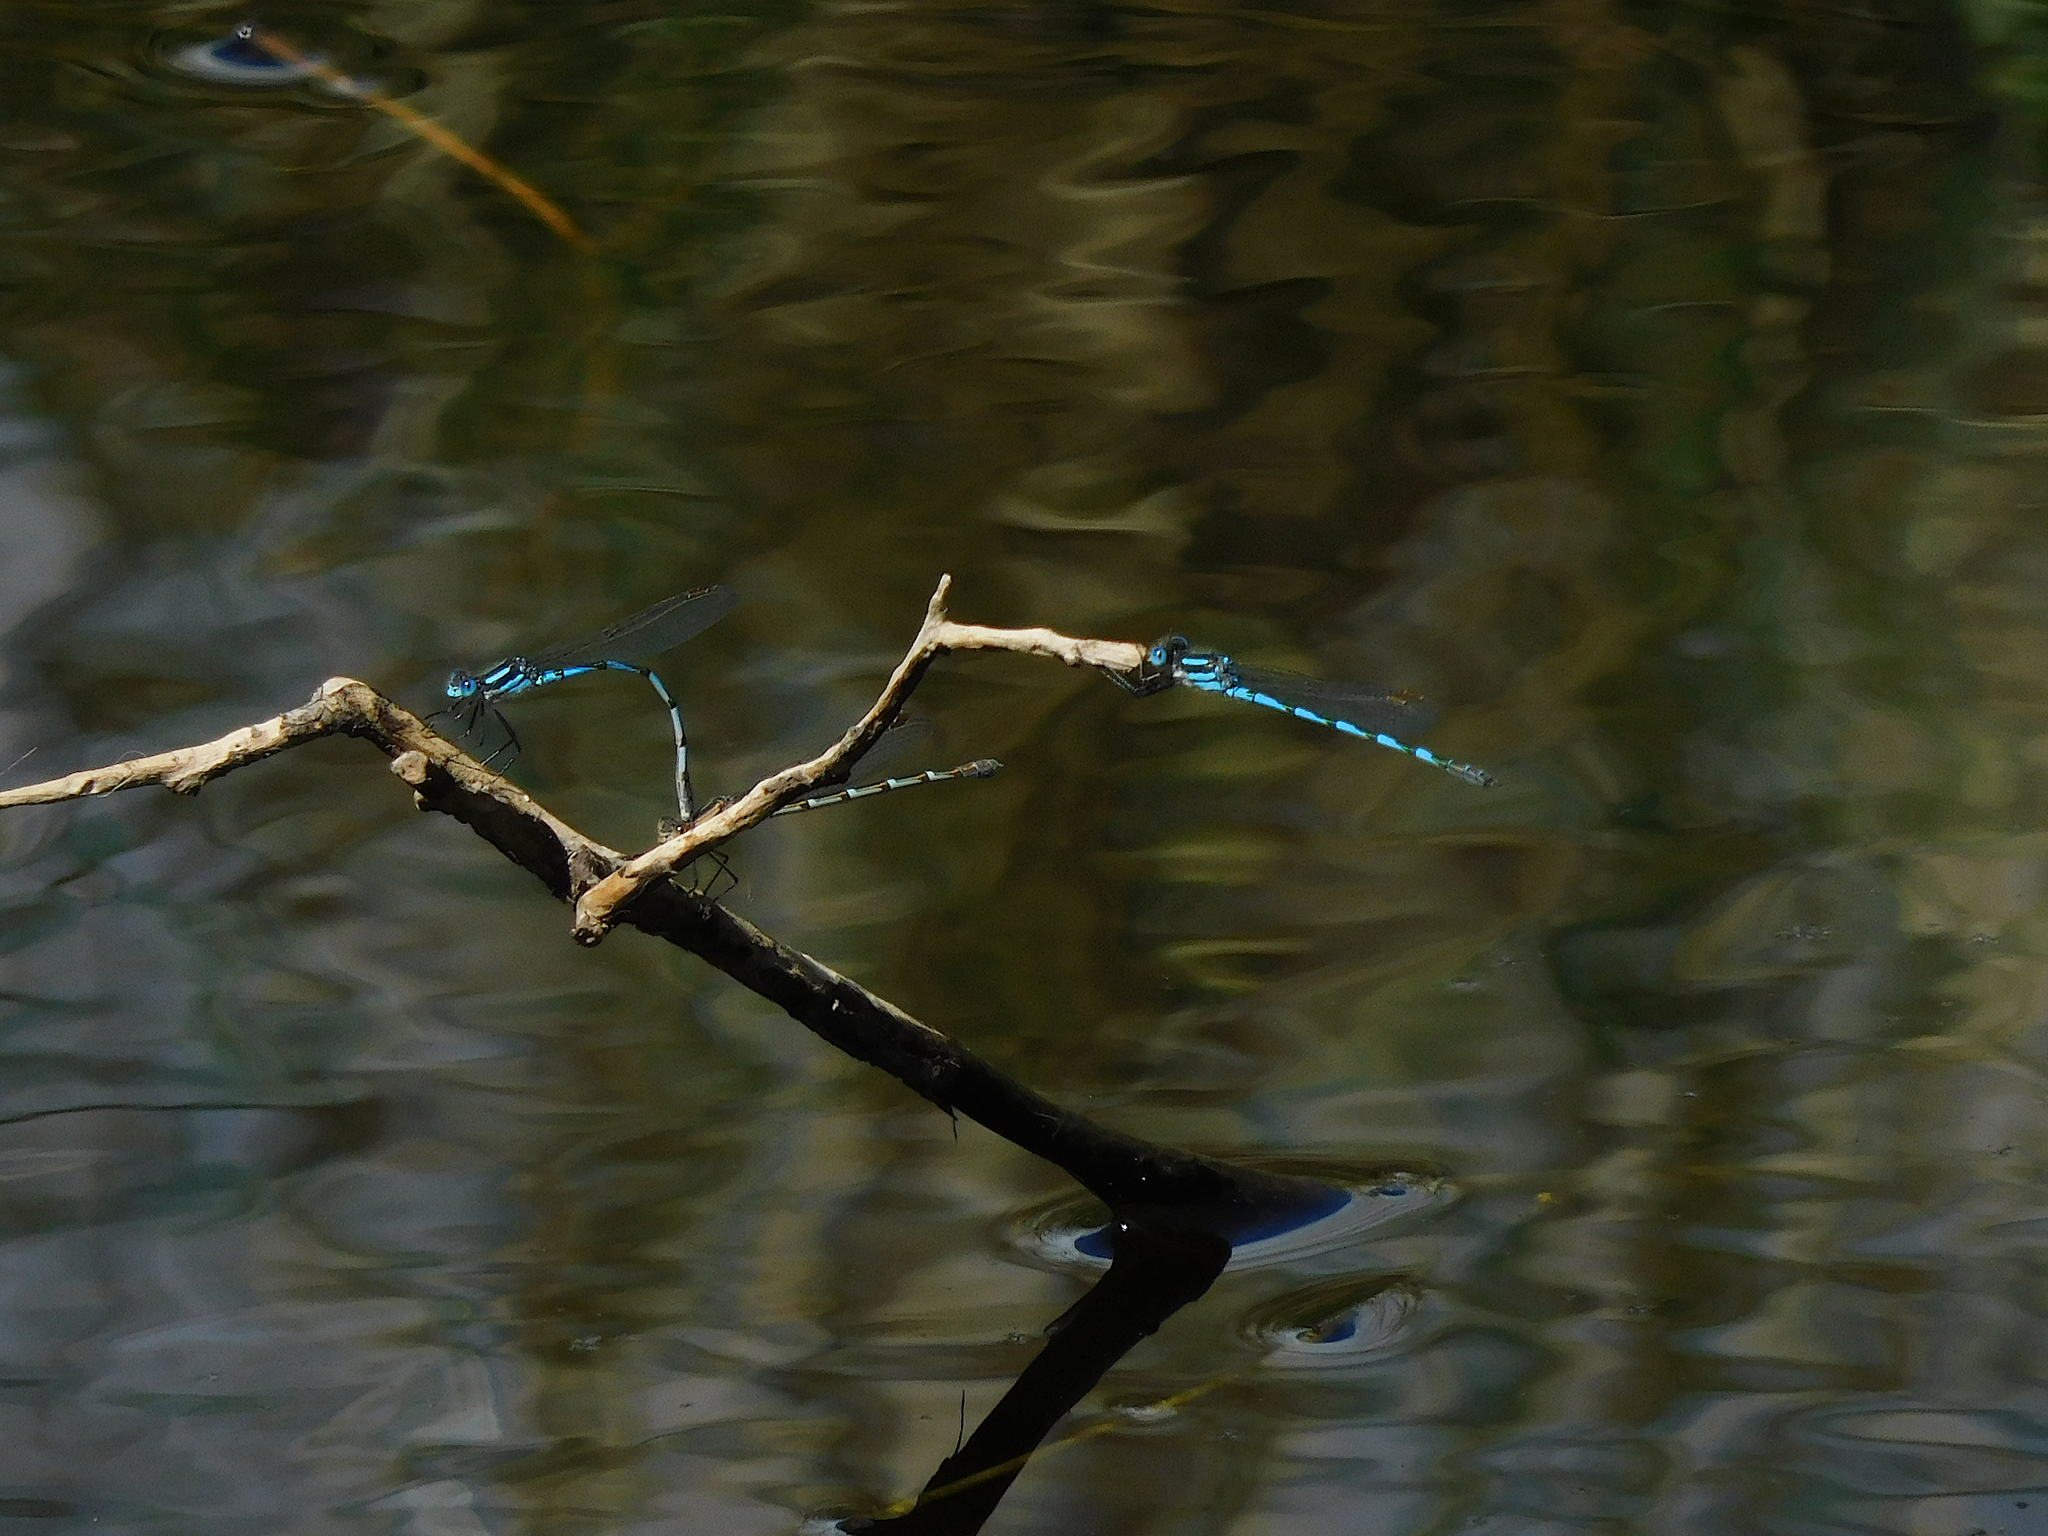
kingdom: Animalia
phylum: Arthropoda
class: Insecta
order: Odonata
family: Lestidae
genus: Austrolestes
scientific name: Austrolestes annulosus
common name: Blue ringtail
